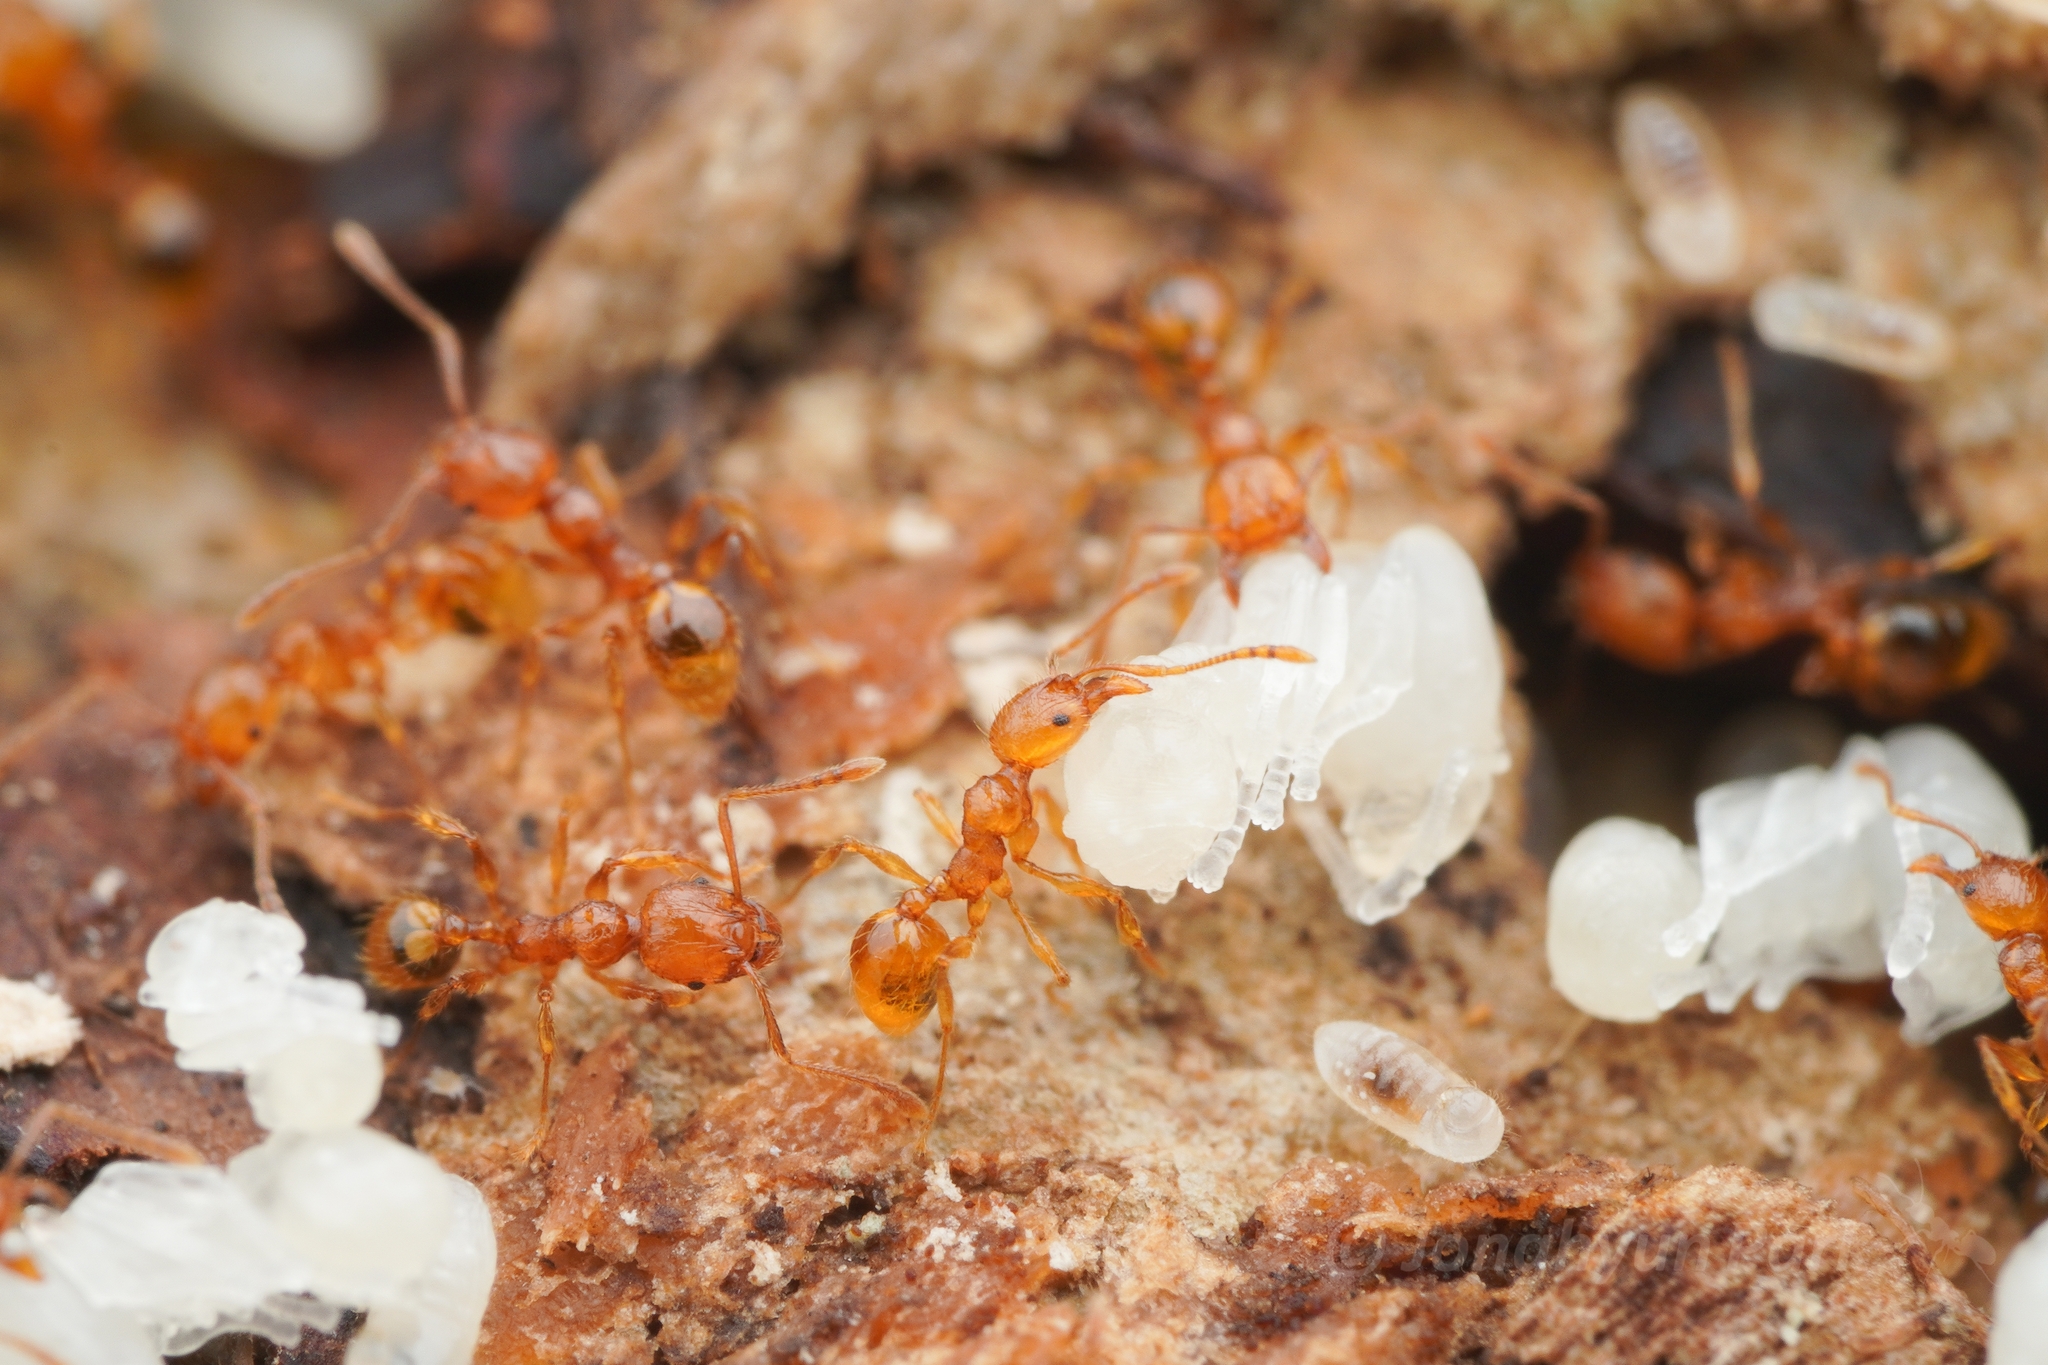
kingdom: Animalia
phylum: Arthropoda
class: Insecta
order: Hymenoptera
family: Formicidae
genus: Pheidole
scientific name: Pheidole fervida
